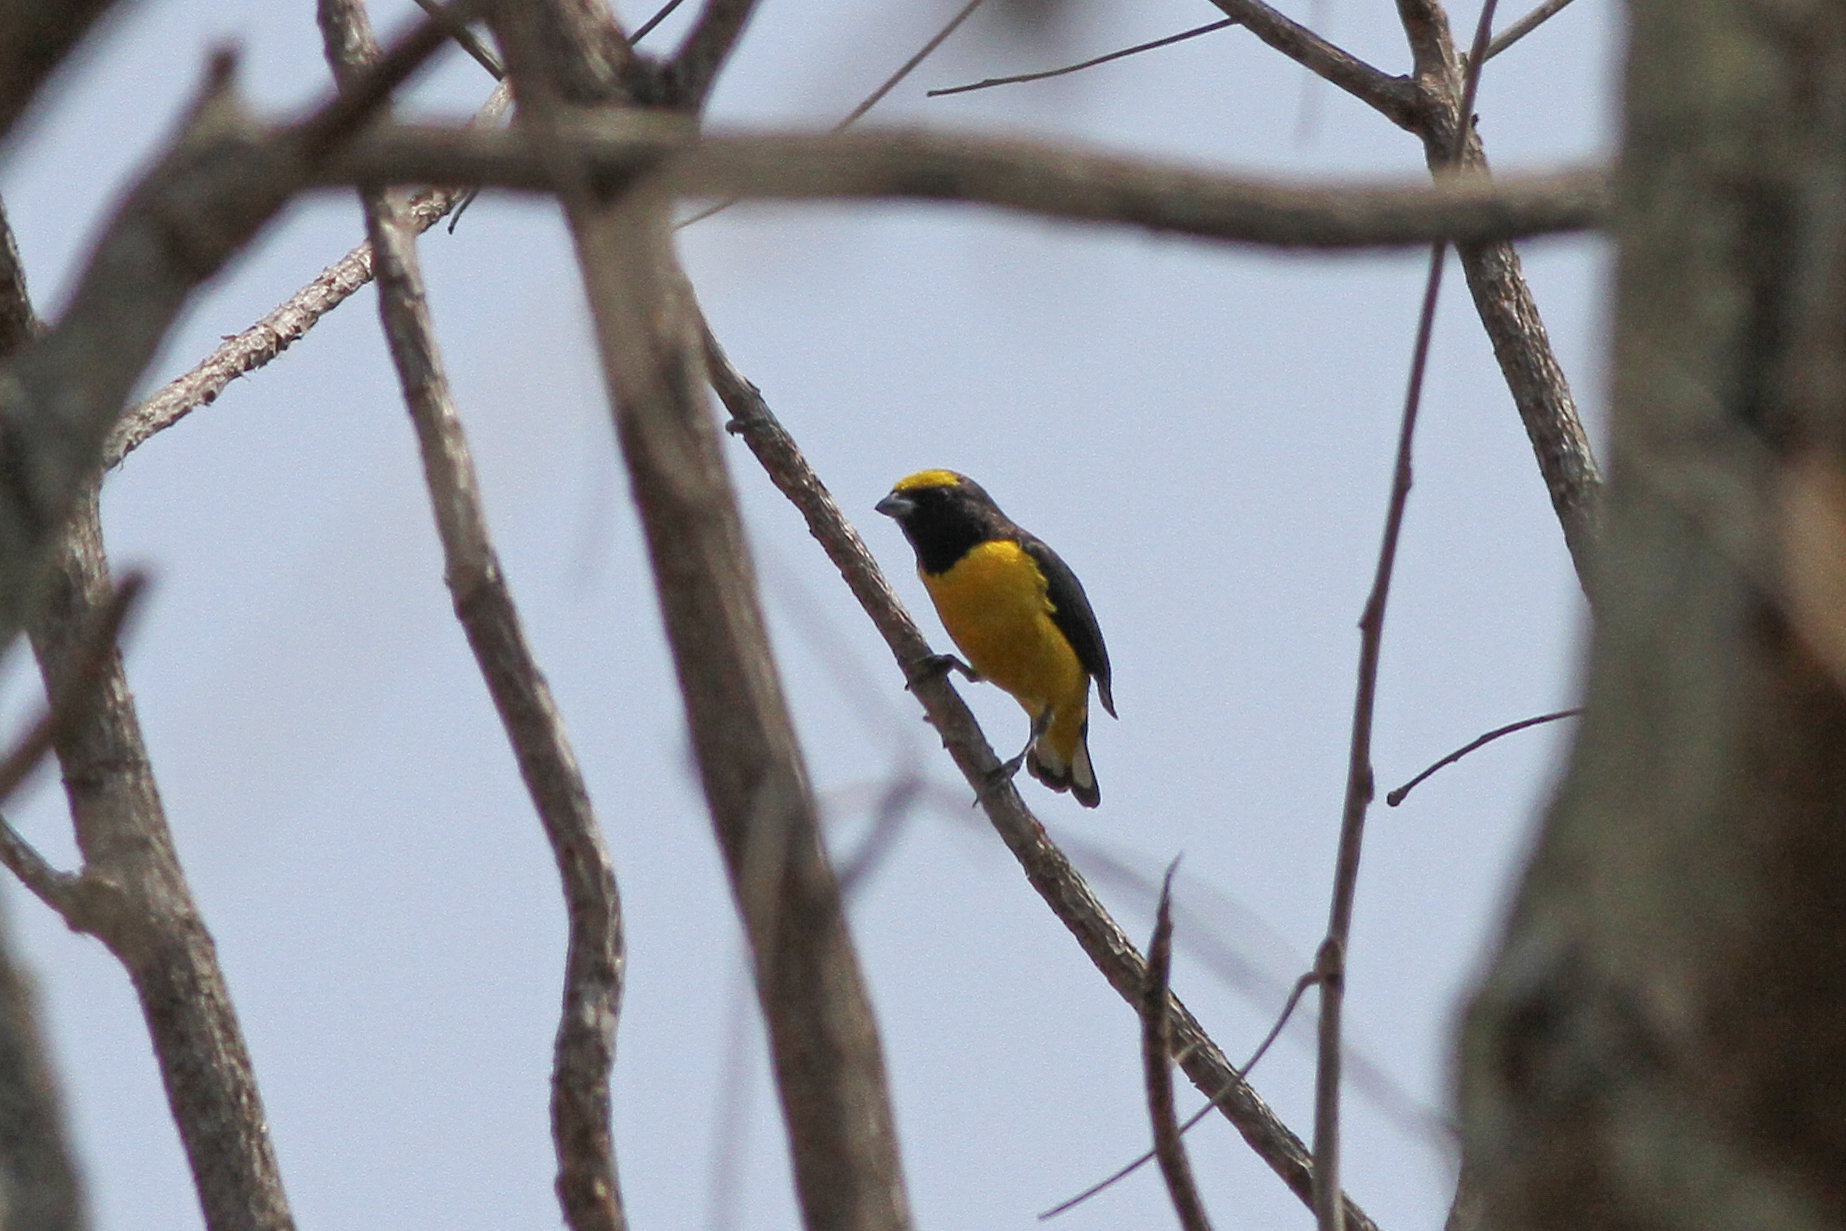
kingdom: Animalia
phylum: Chordata
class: Aves
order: Passeriformes
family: Fringillidae
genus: Euphonia
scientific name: Euphonia affinis
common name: Scrub euphonia
